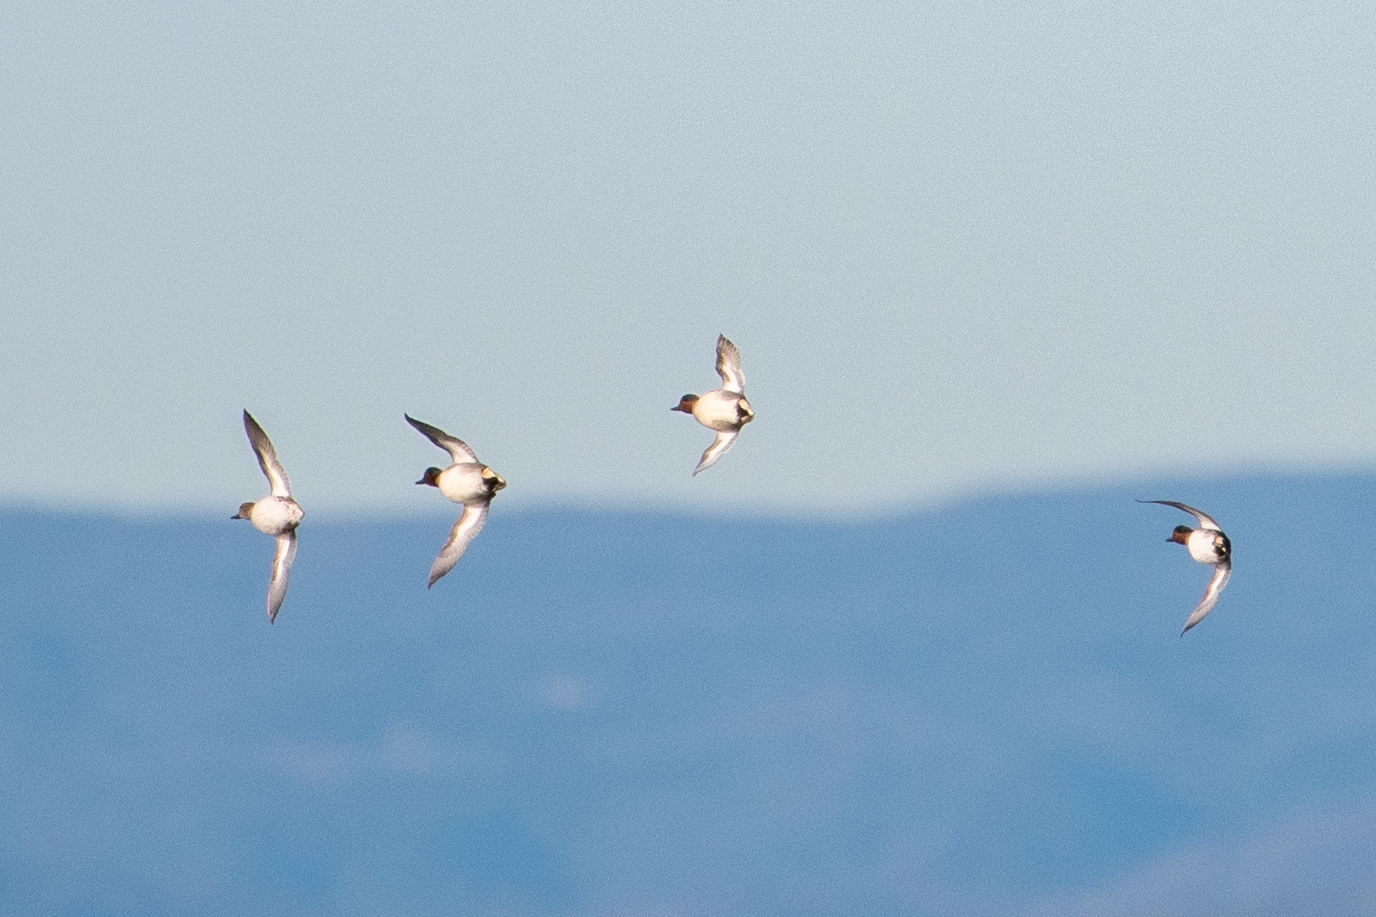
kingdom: Animalia
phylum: Chordata
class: Aves
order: Anseriformes
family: Anatidae
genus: Anas
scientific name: Anas crecca
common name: Eurasian teal
